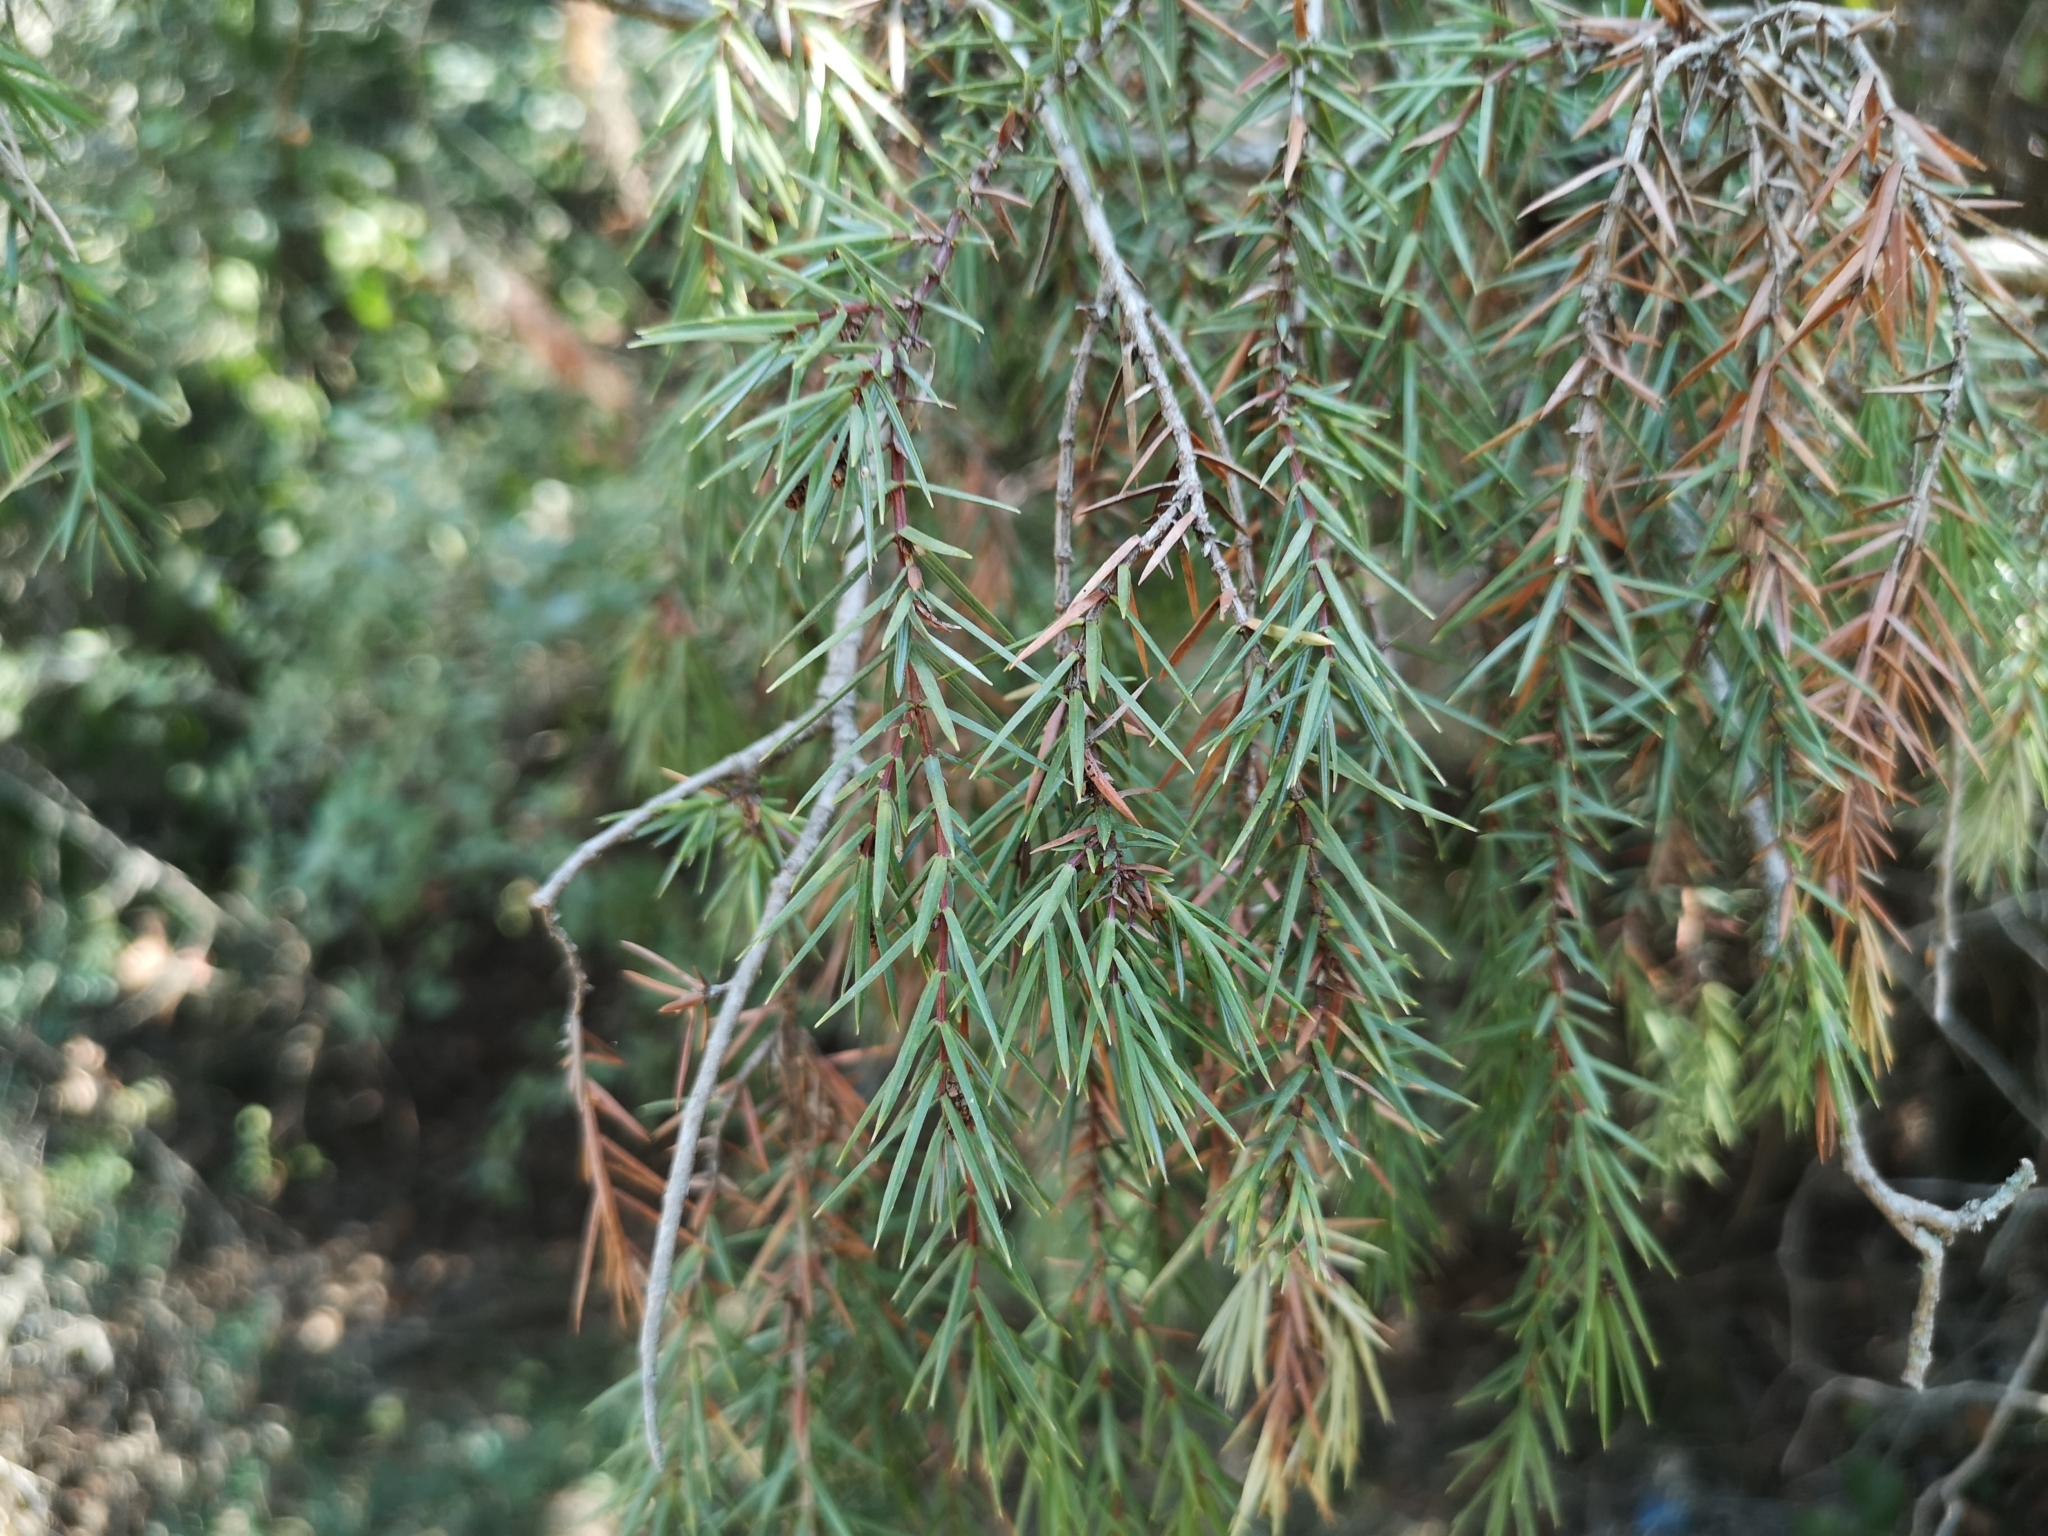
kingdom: Plantae
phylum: Tracheophyta
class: Pinopsida
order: Pinales
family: Cupressaceae
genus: Juniperus
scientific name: Juniperus oxycedrus
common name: Prickly juniper
